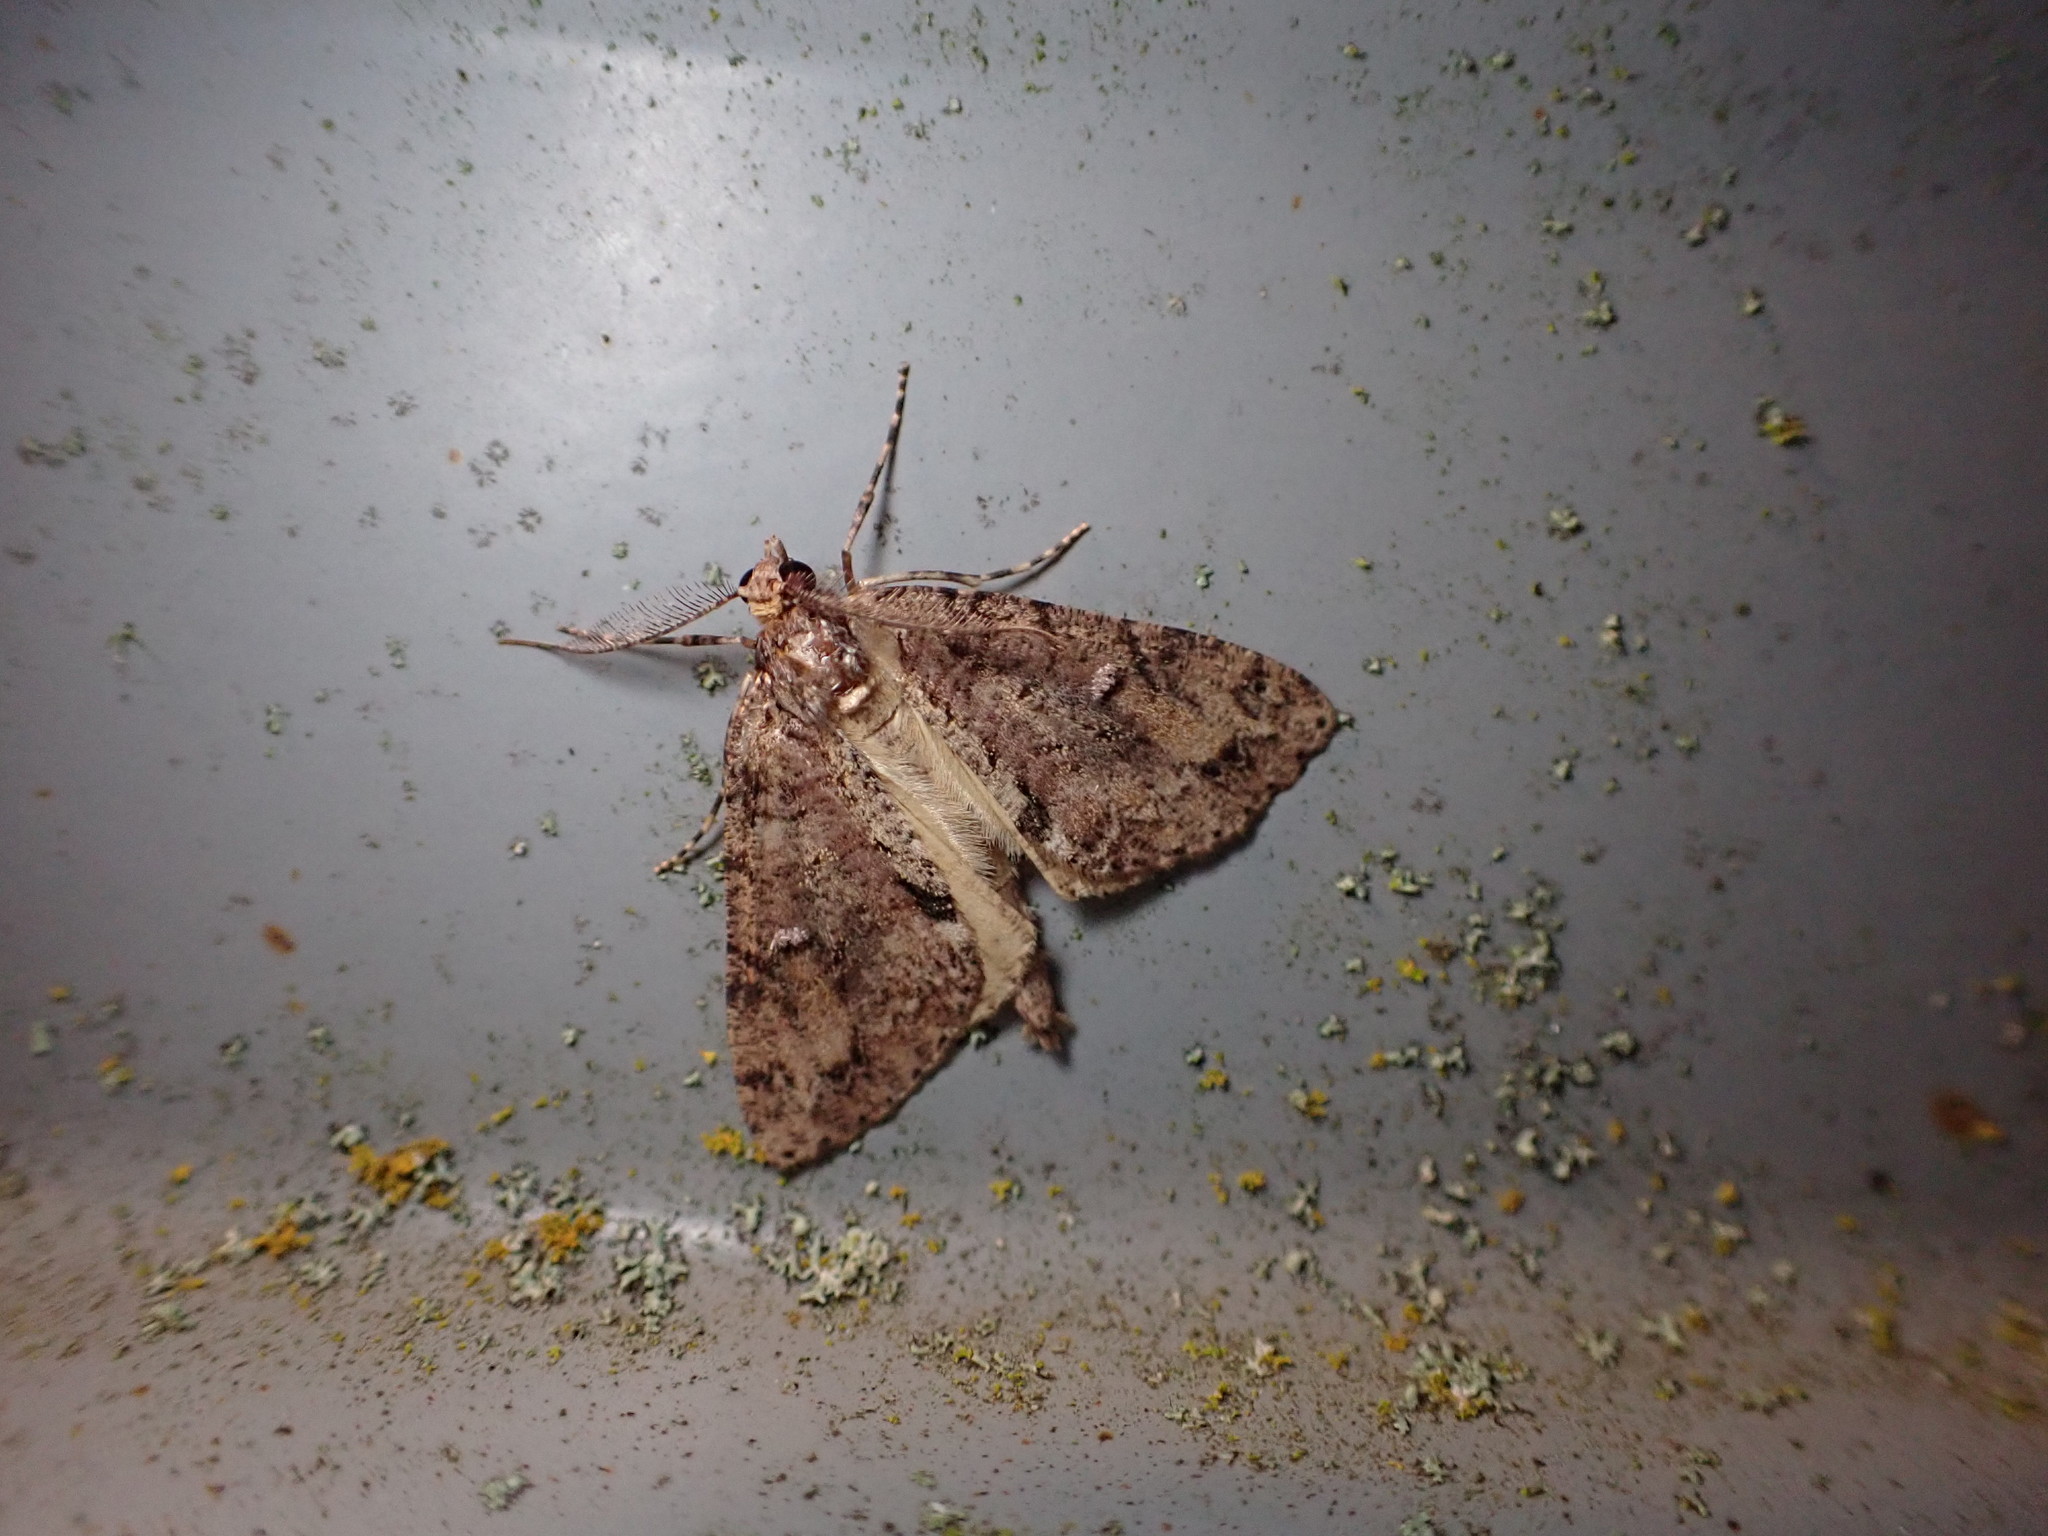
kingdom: Animalia
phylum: Arthropoda
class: Insecta
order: Lepidoptera
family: Geometridae
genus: Pseudocoremia
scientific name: Pseudocoremia suavis
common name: Common forest looper
